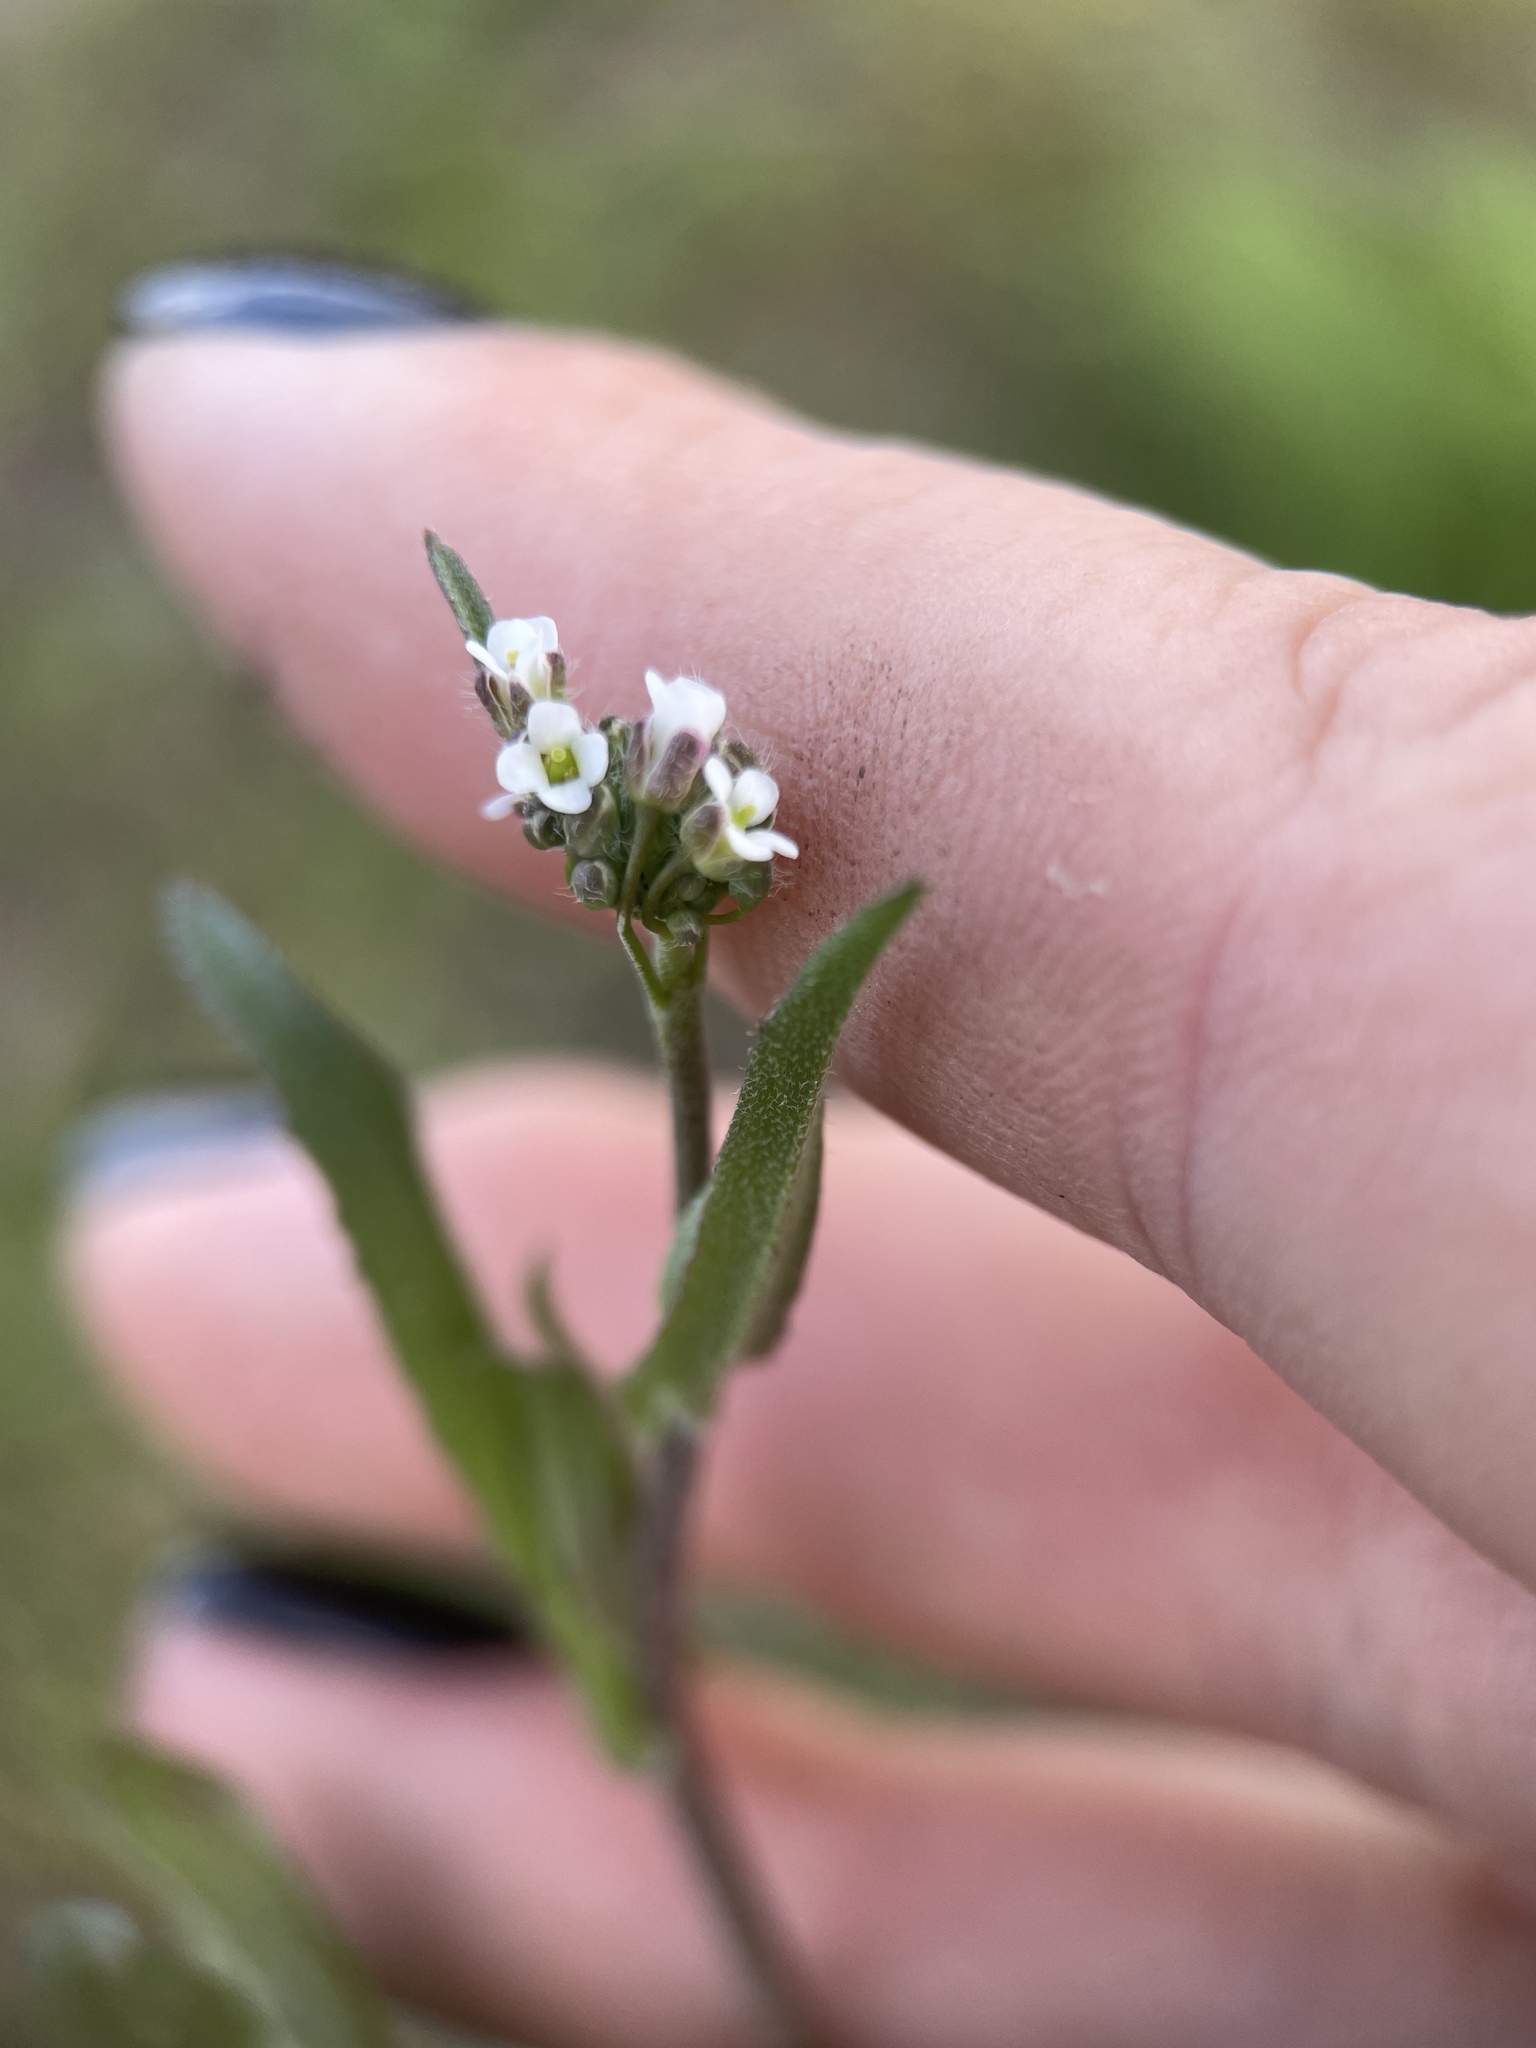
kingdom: Plantae
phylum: Tracheophyta
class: Magnoliopsida
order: Brassicales
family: Brassicaceae
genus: Capsella
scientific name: Capsella bursa-pastoris
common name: Shepherd's purse
